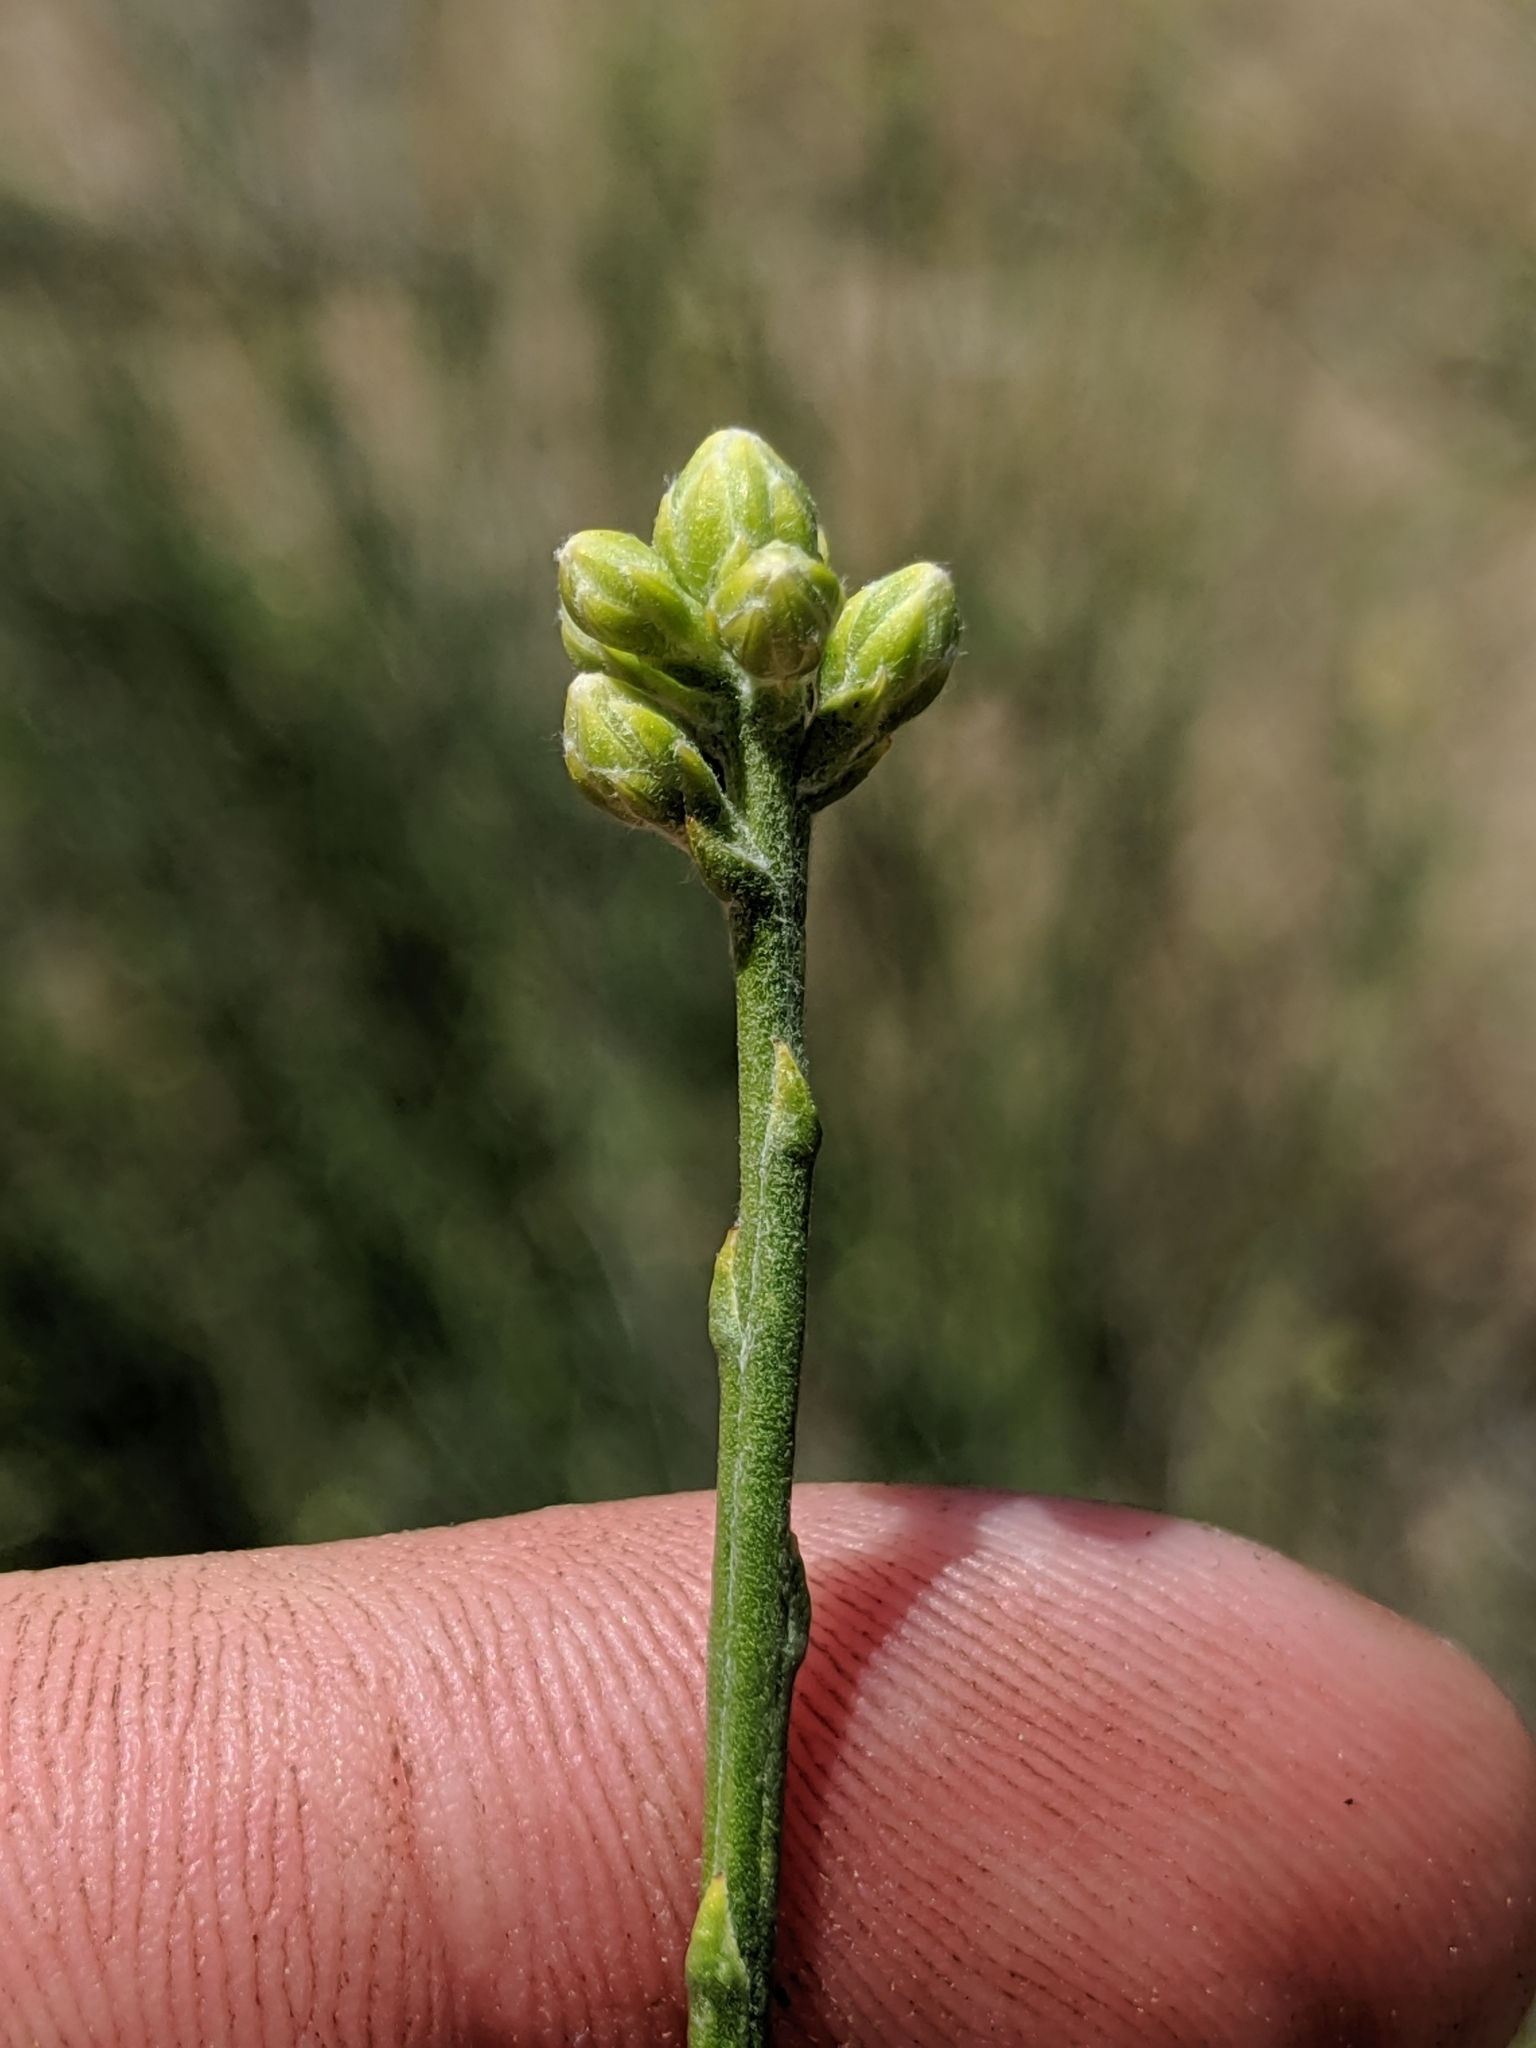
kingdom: Plantae
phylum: Tracheophyta
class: Magnoliopsida
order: Asterales
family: Asteraceae
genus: Lepidospartum
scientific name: Lepidospartum squamatum
